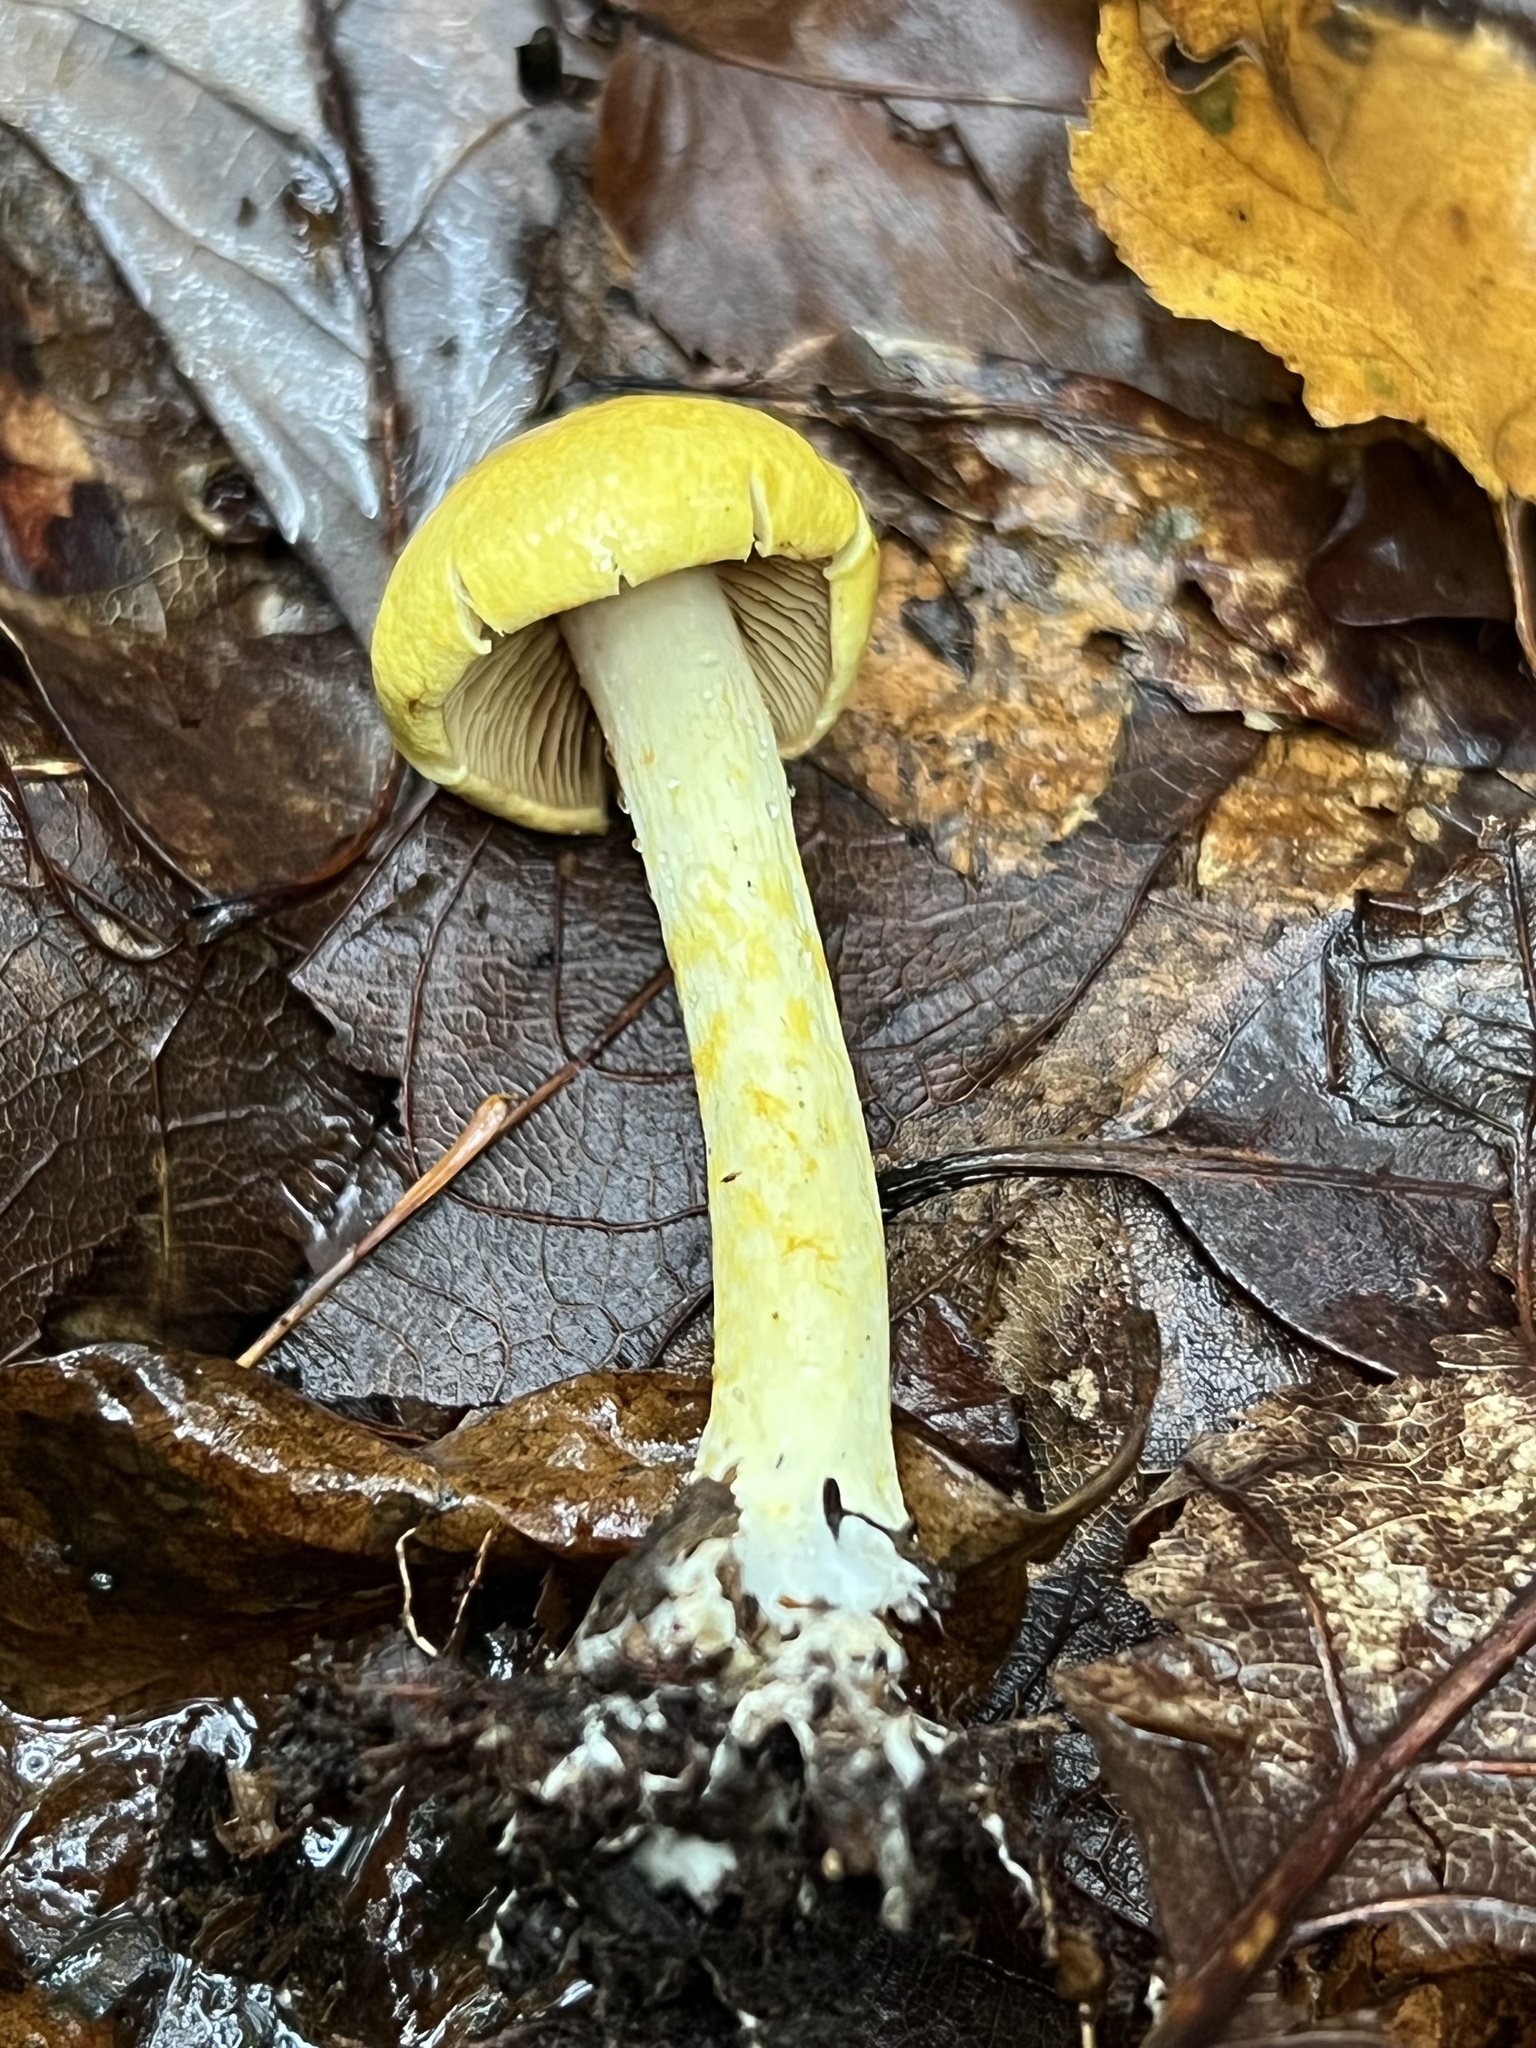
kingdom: Fungi
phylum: Basidiomycota
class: Agaricomycetes
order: Agaricales
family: Cortinariaceae
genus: Cortinarius
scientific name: Cortinarius lewisii
